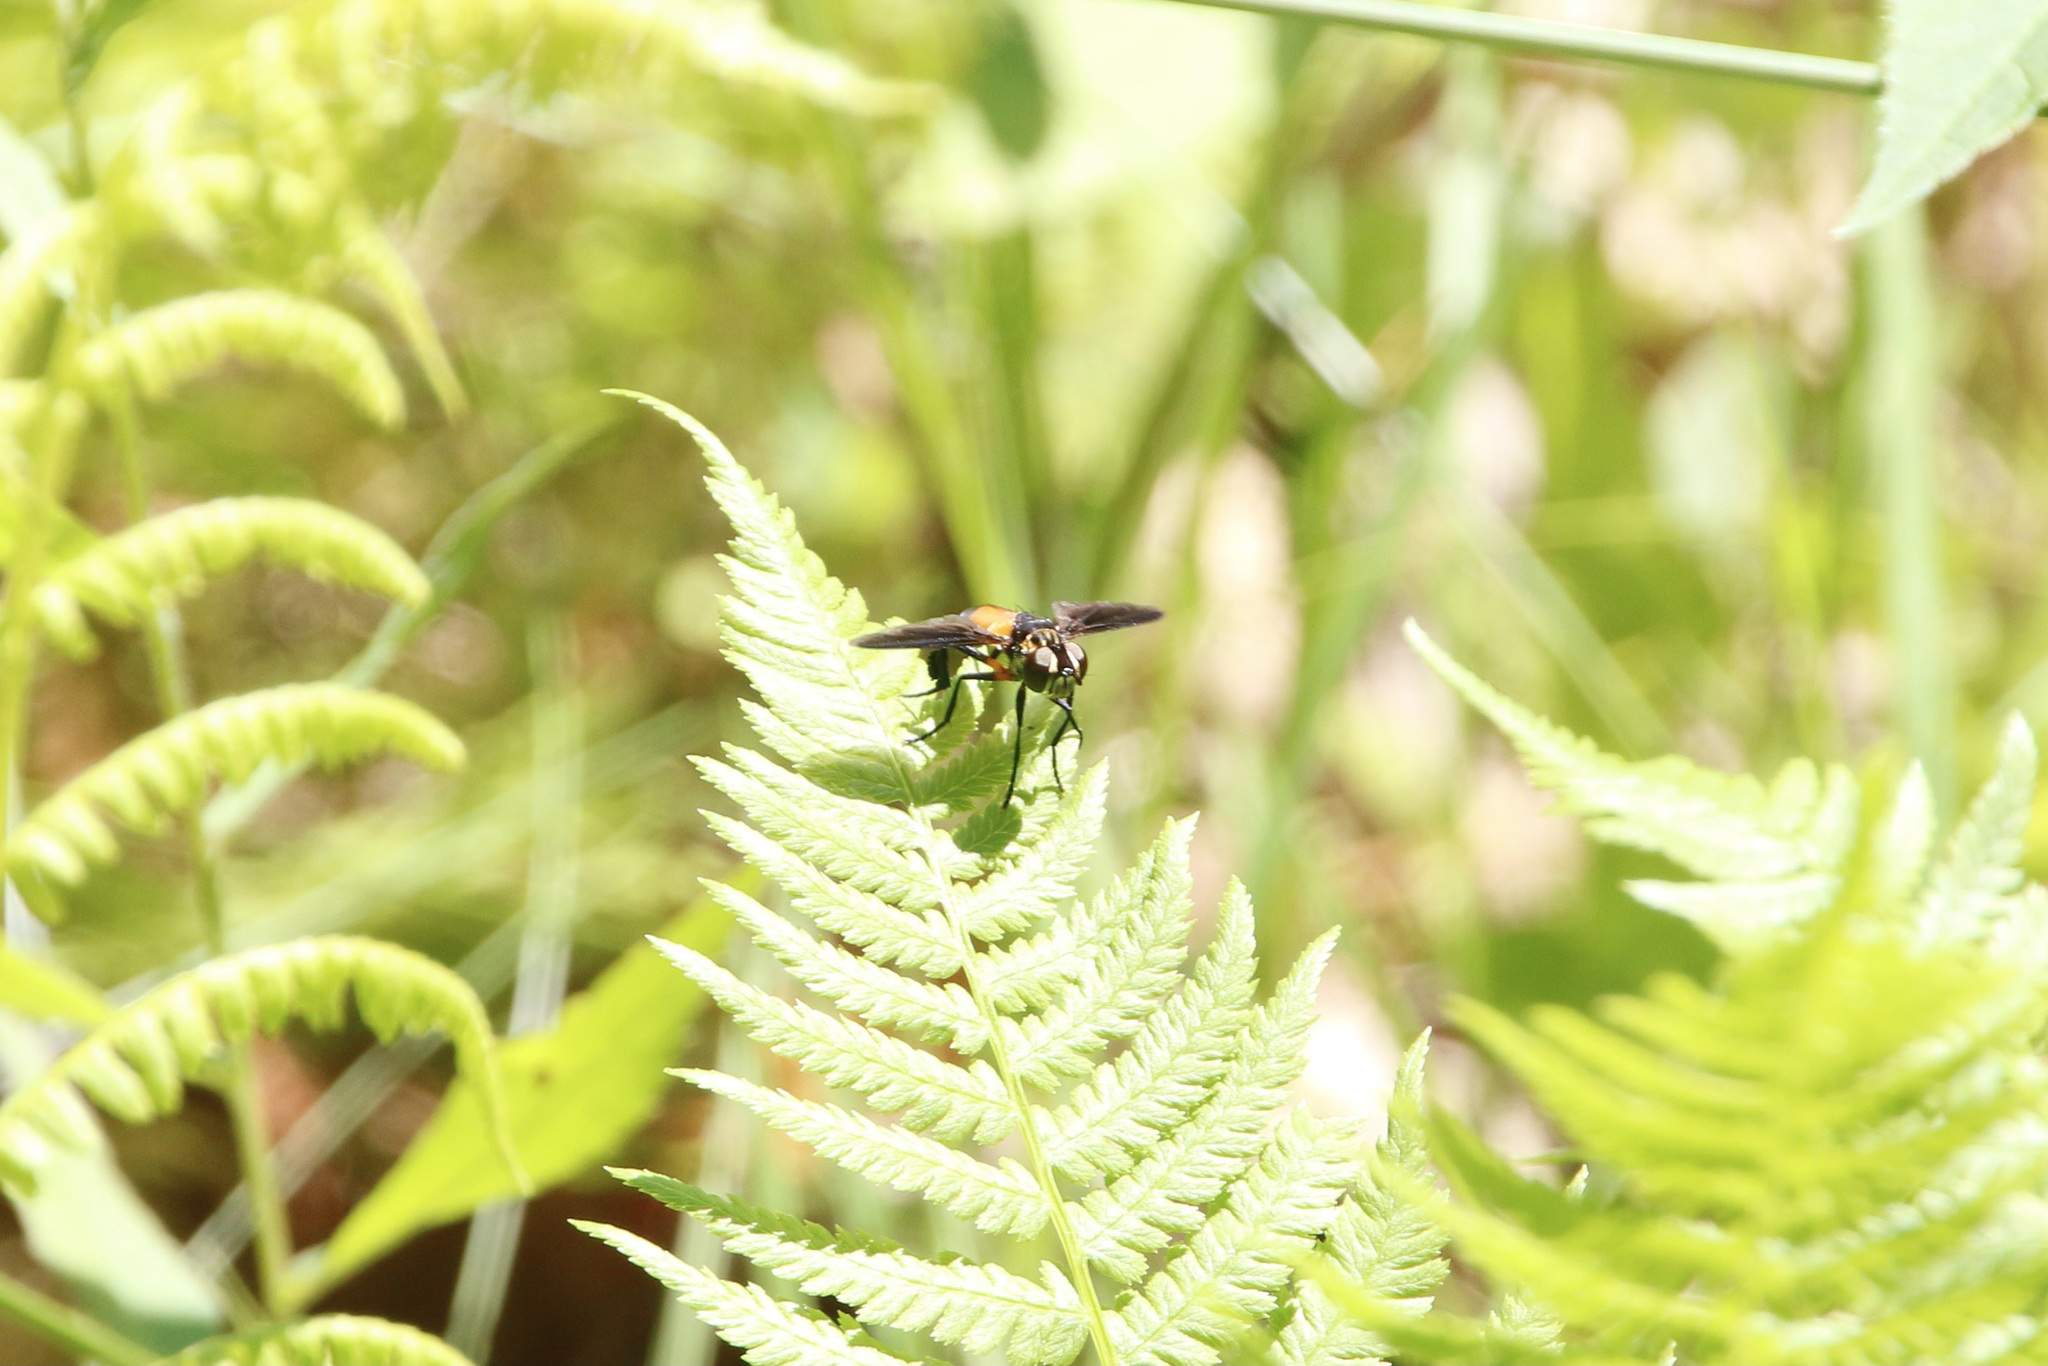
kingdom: Animalia
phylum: Arthropoda
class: Insecta
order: Diptera
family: Tachinidae
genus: Trichopoda
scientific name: Trichopoda pennipes
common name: Tachinid fly
